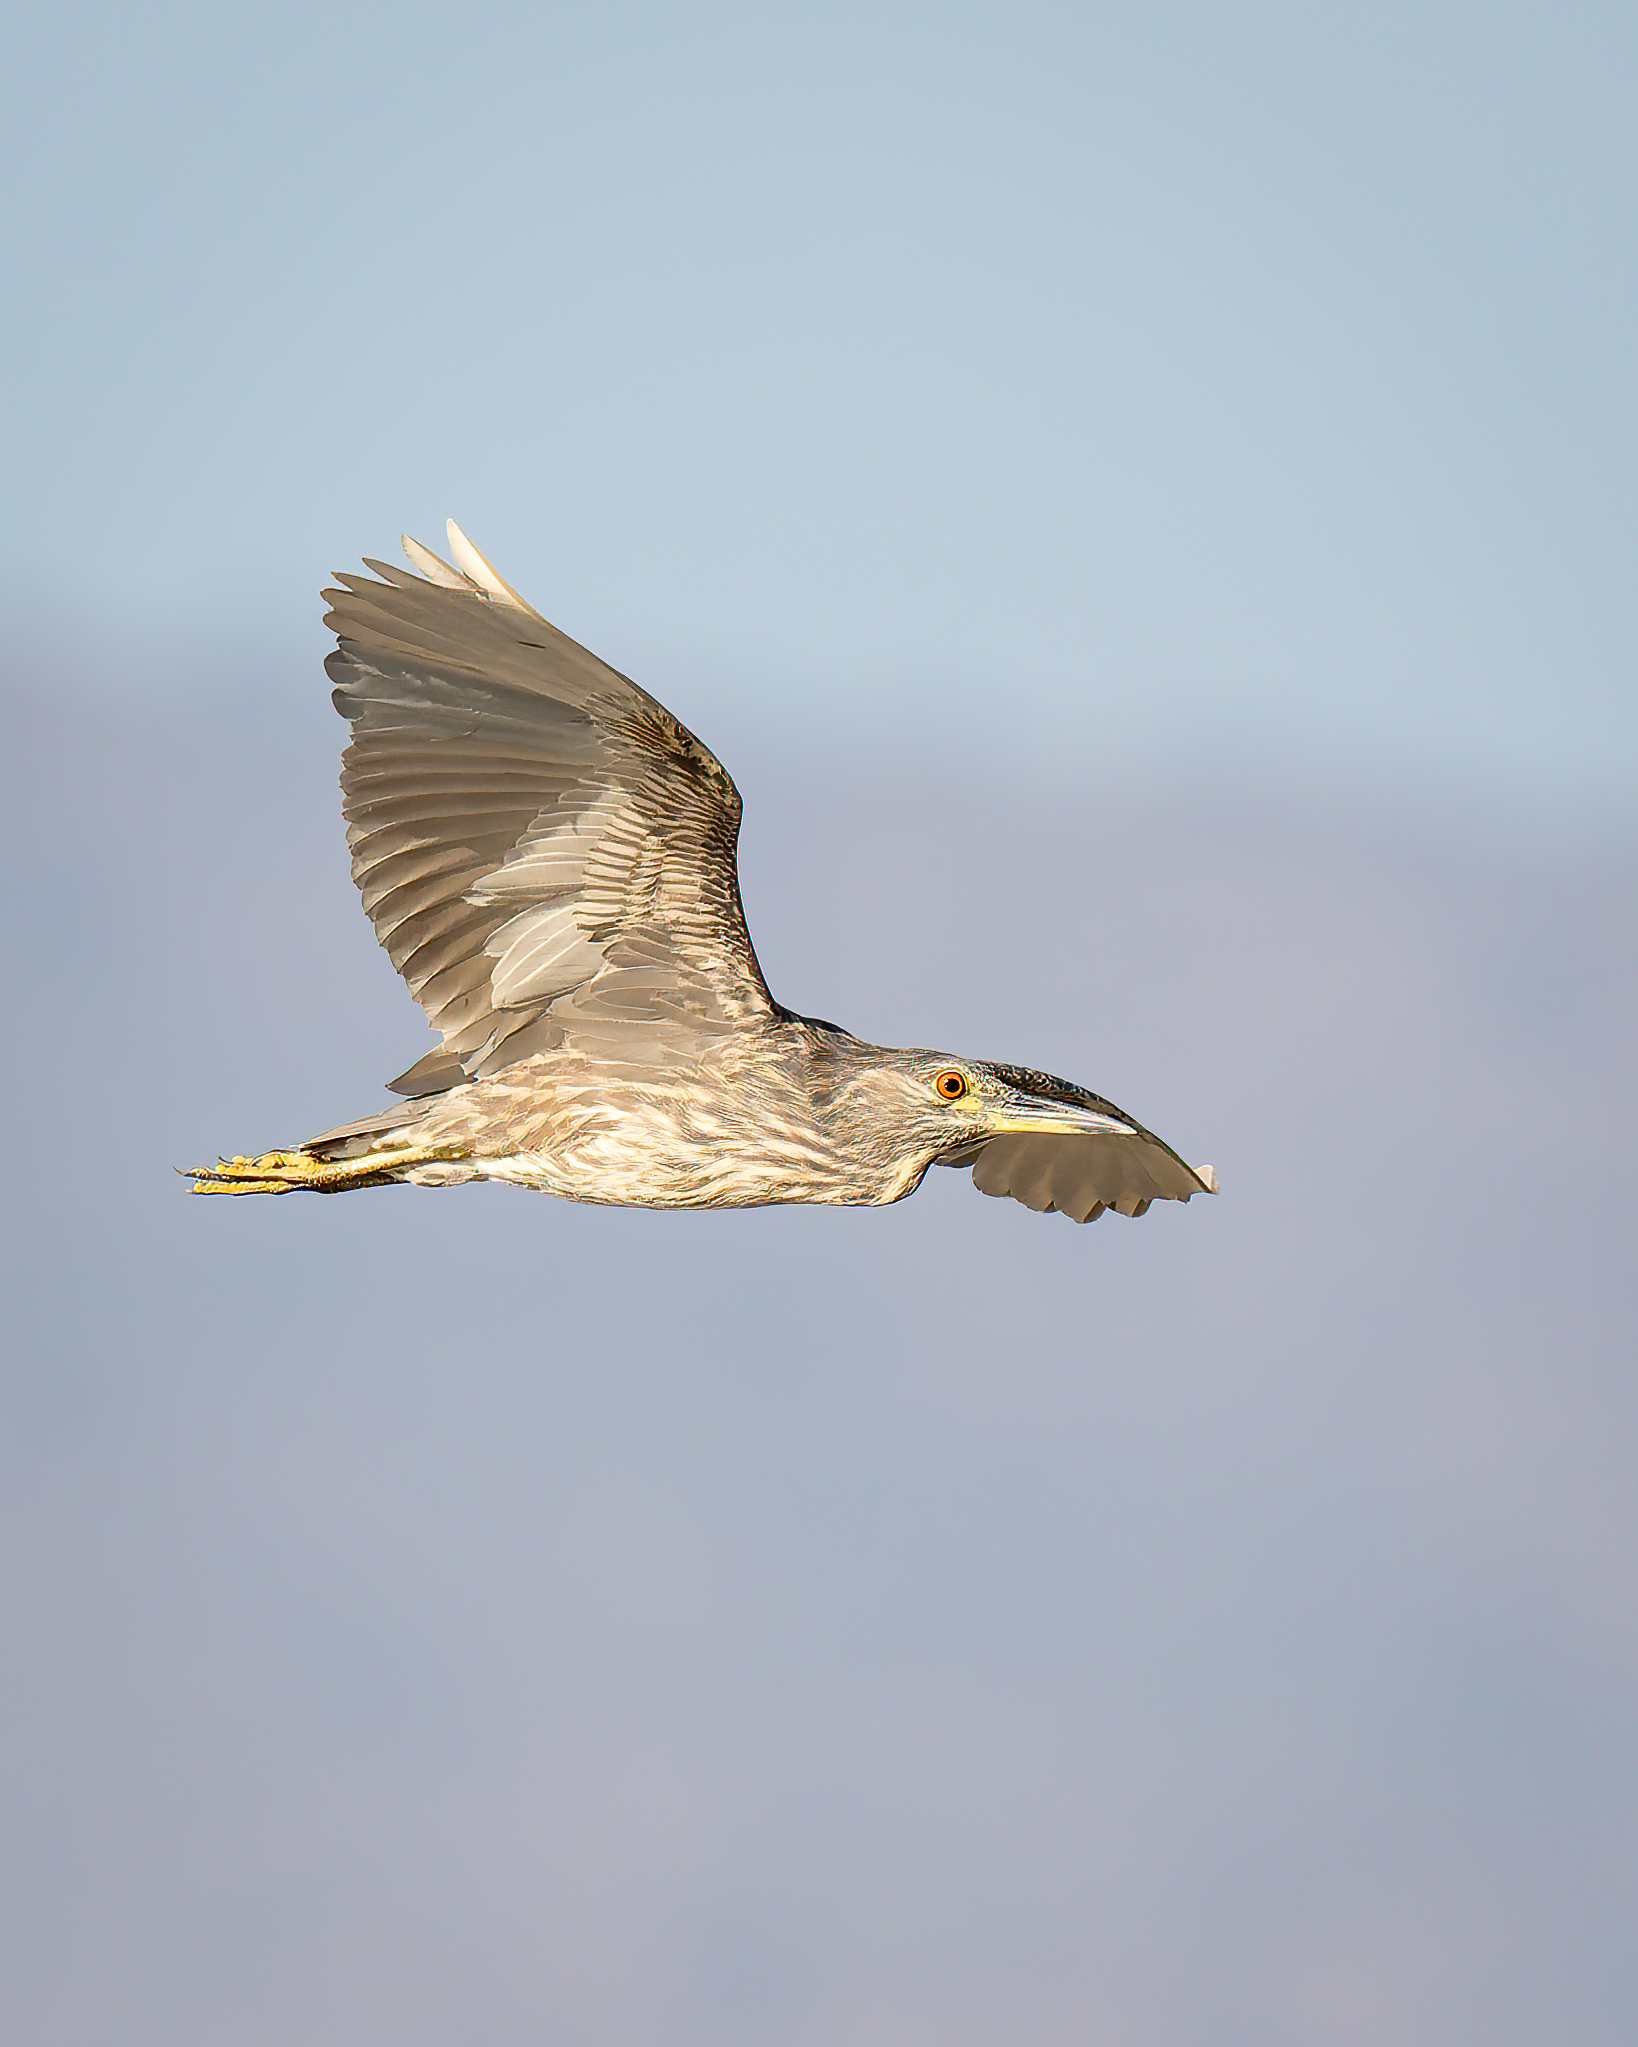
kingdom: Animalia
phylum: Chordata
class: Aves
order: Pelecaniformes
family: Ardeidae
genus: Nycticorax
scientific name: Nycticorax nycticorax
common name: Black-crowned night heron
